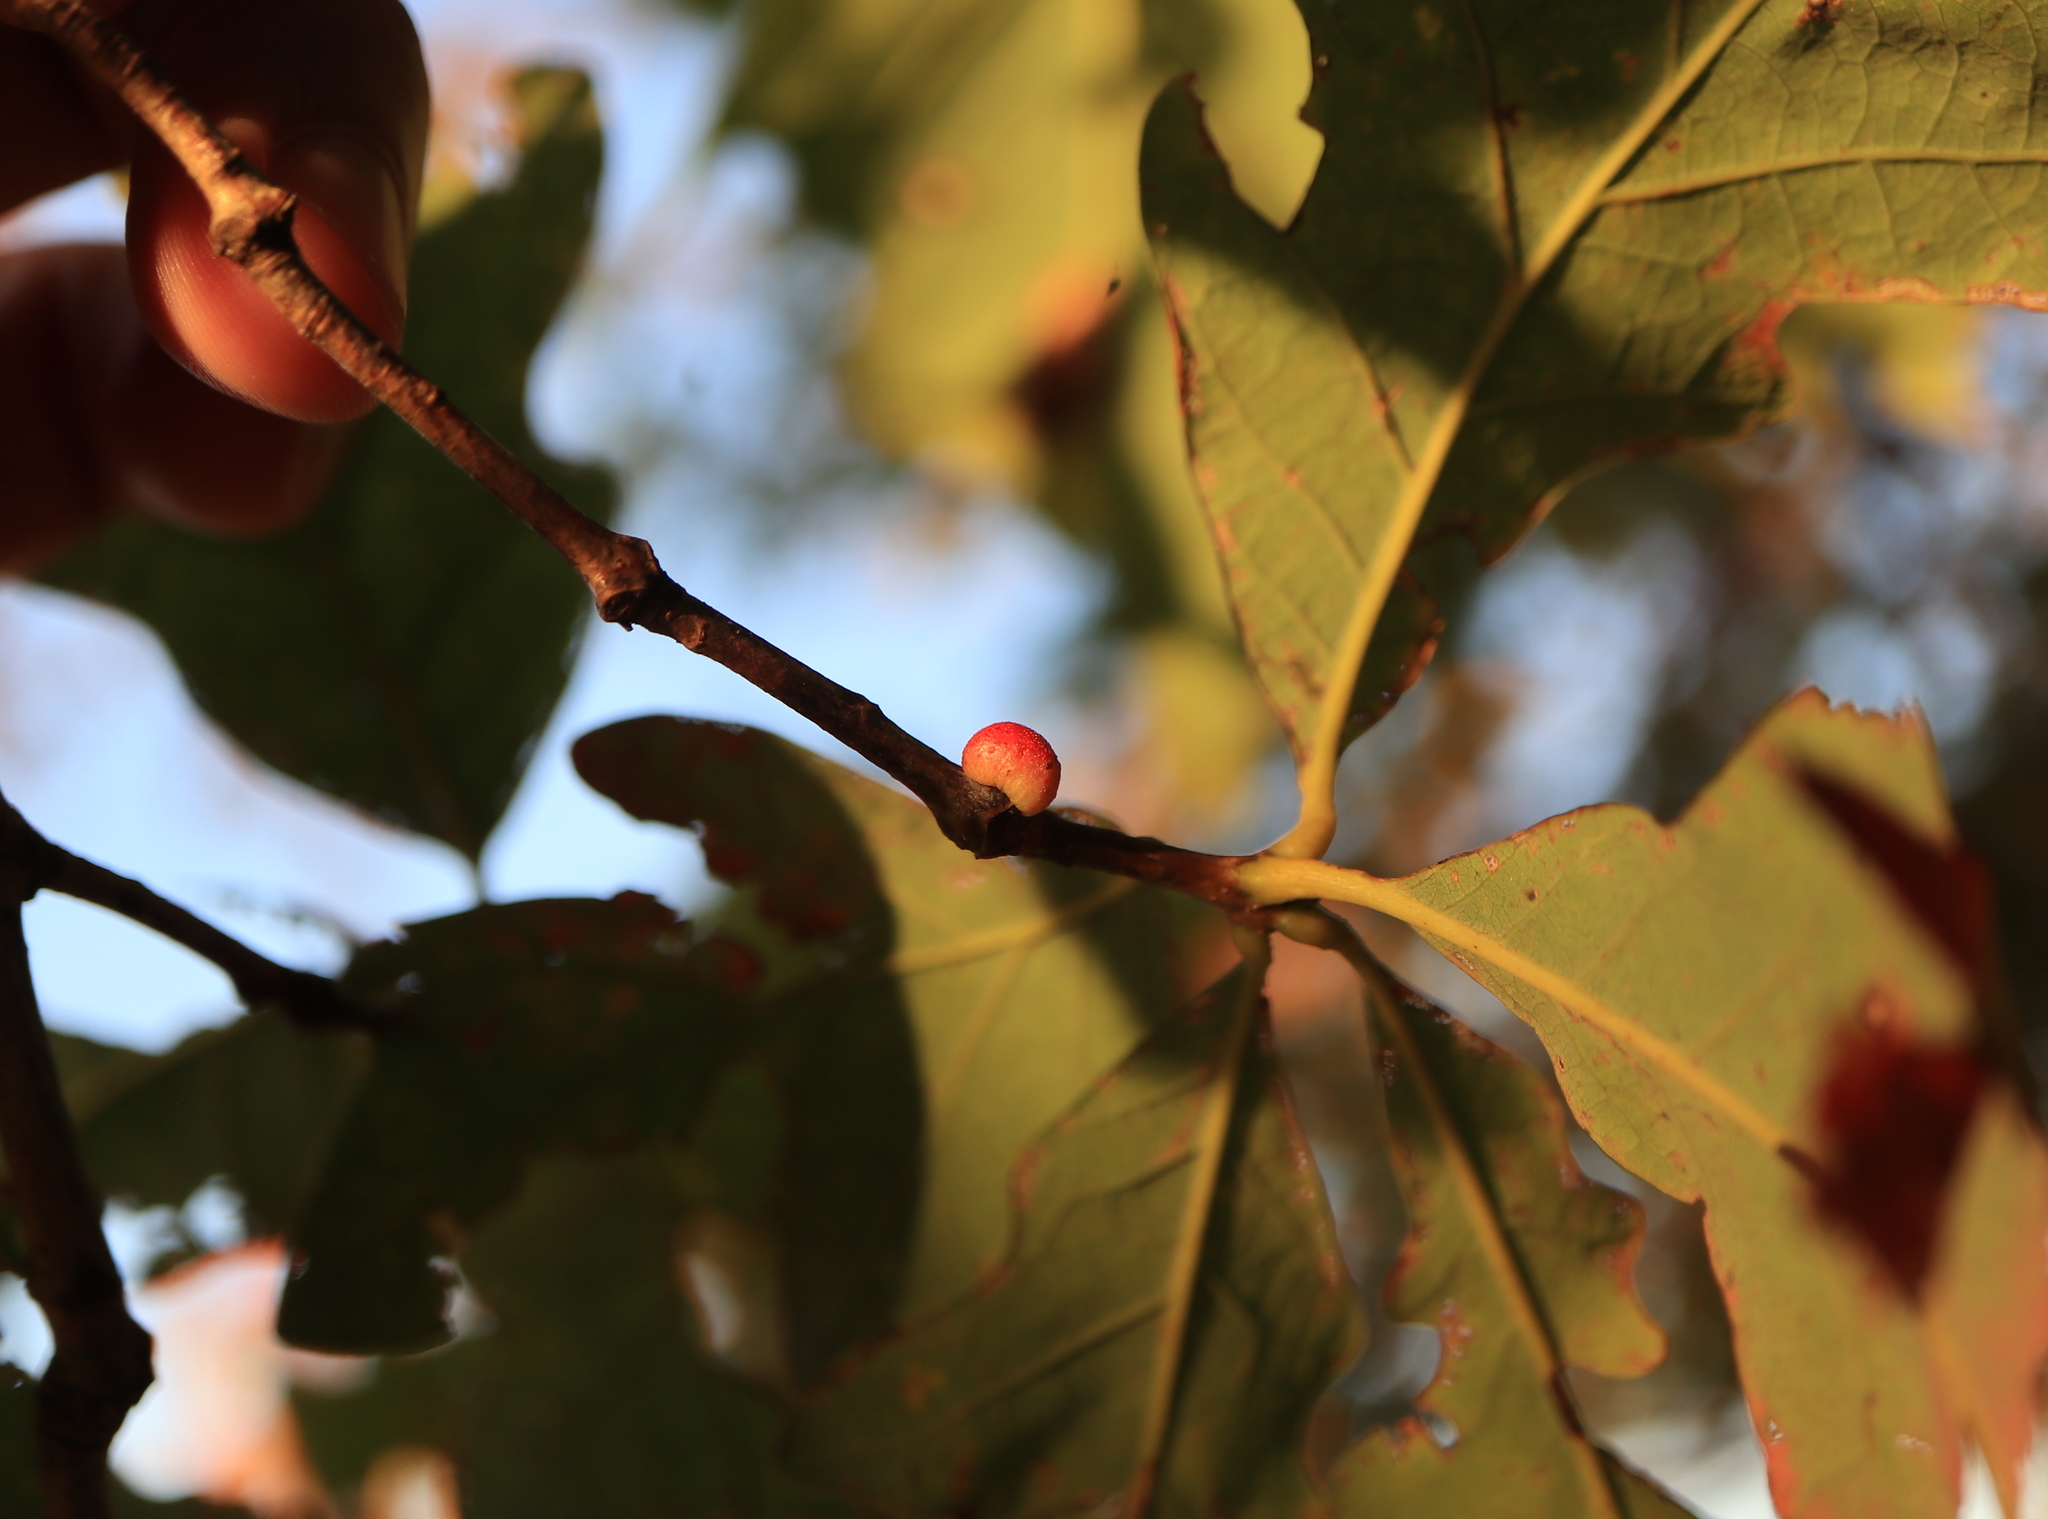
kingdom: Animalia
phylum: Arthropoda
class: Insecta
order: Hymenoptera
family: Cynipidae
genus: Disholcaspis
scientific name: Disholcaspis quercusglobulus
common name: Round bullet gall wasp
